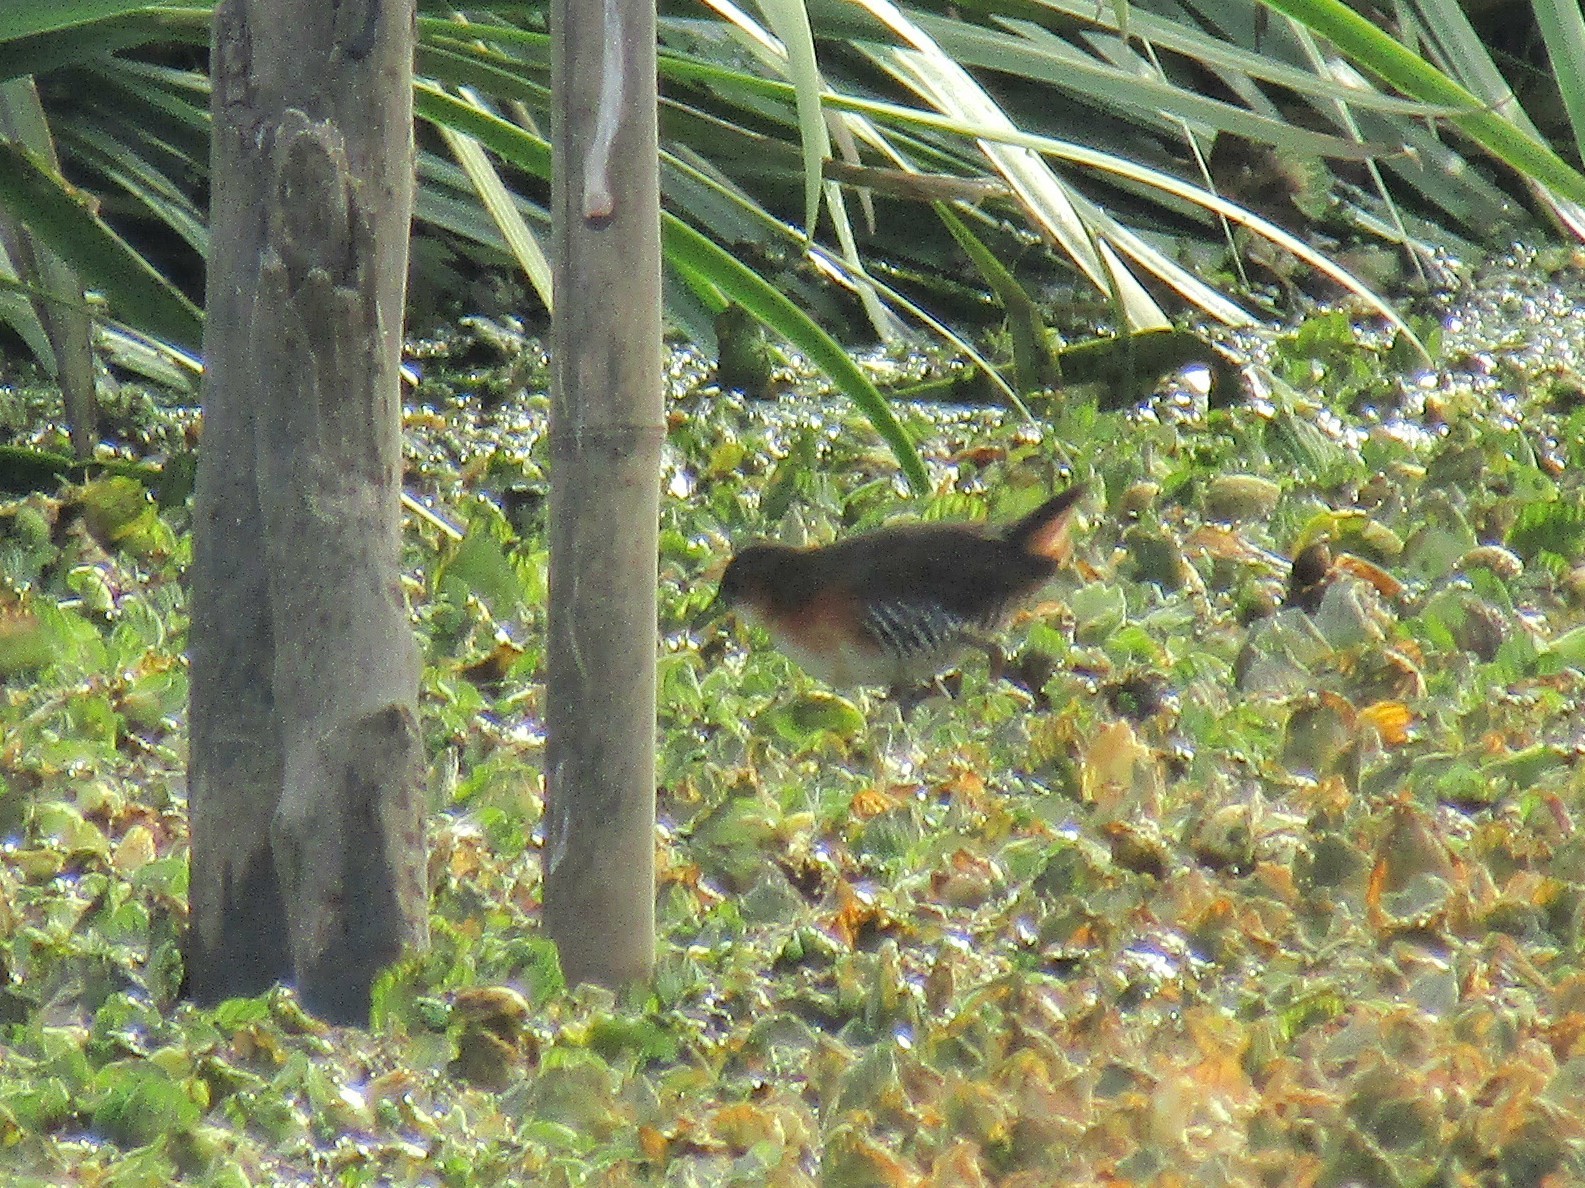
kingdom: Animalia
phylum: Chordata
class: Aves
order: Gruiformes
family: Rallidae
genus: Laterallus
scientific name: Laterallus melanophaius
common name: Rufous-sided crake
